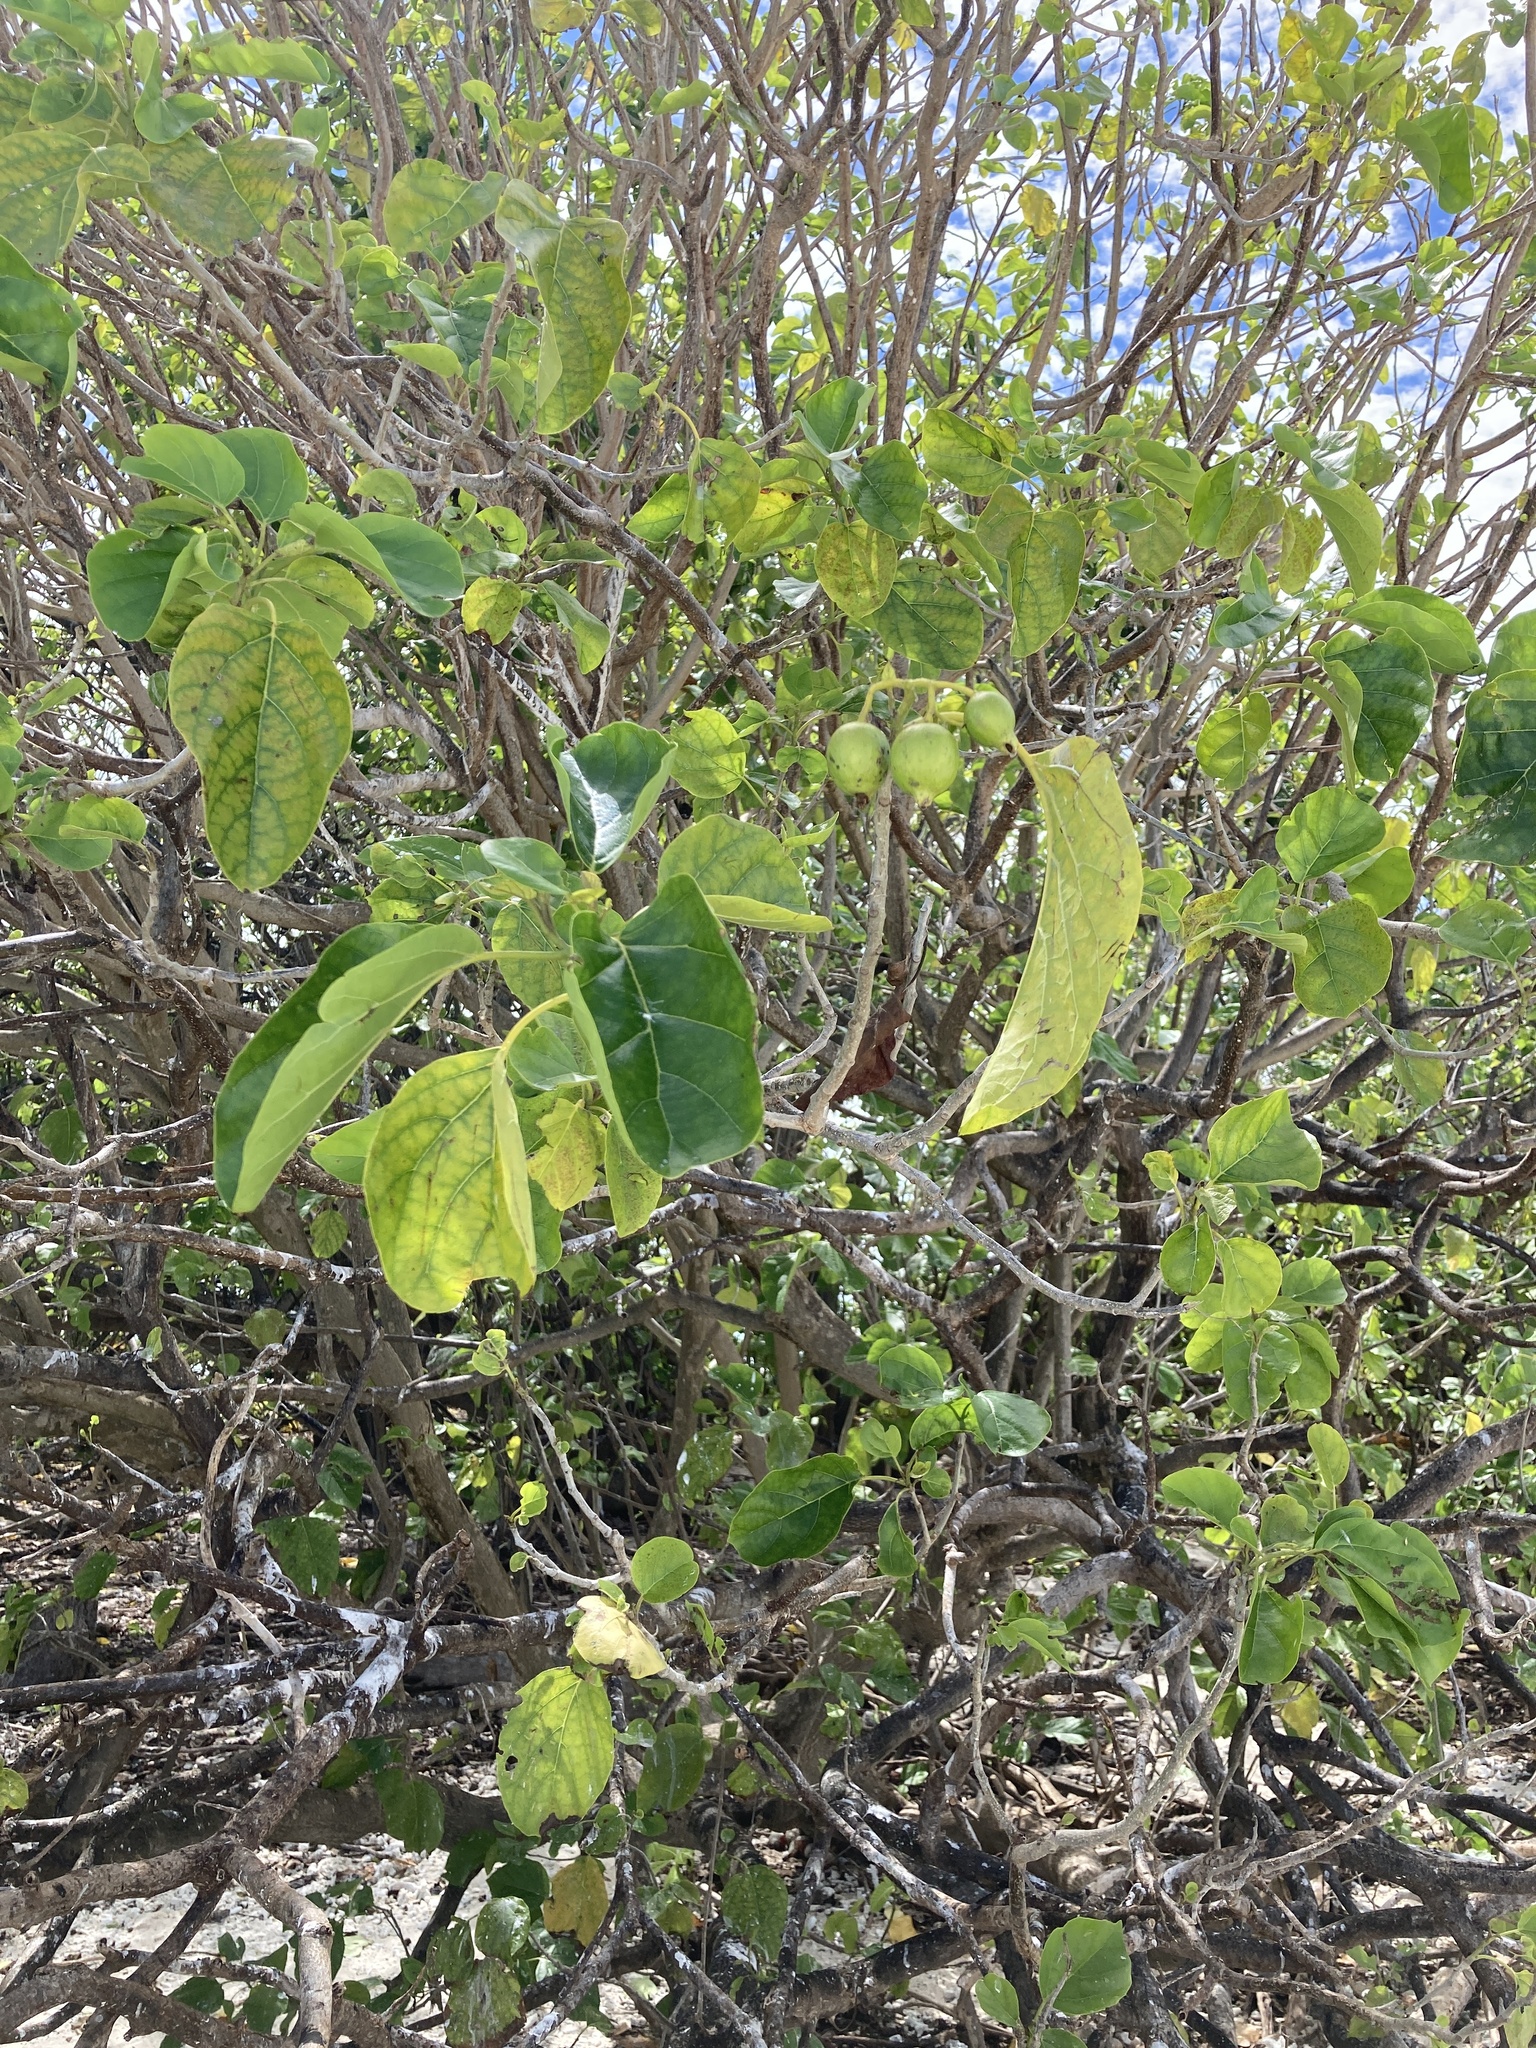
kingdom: Plantae
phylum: Tracheophyta
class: Magnoliopsida
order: Boraginales
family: Cordiaceae
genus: Cordia
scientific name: Cordia subcordata
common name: Mareer
